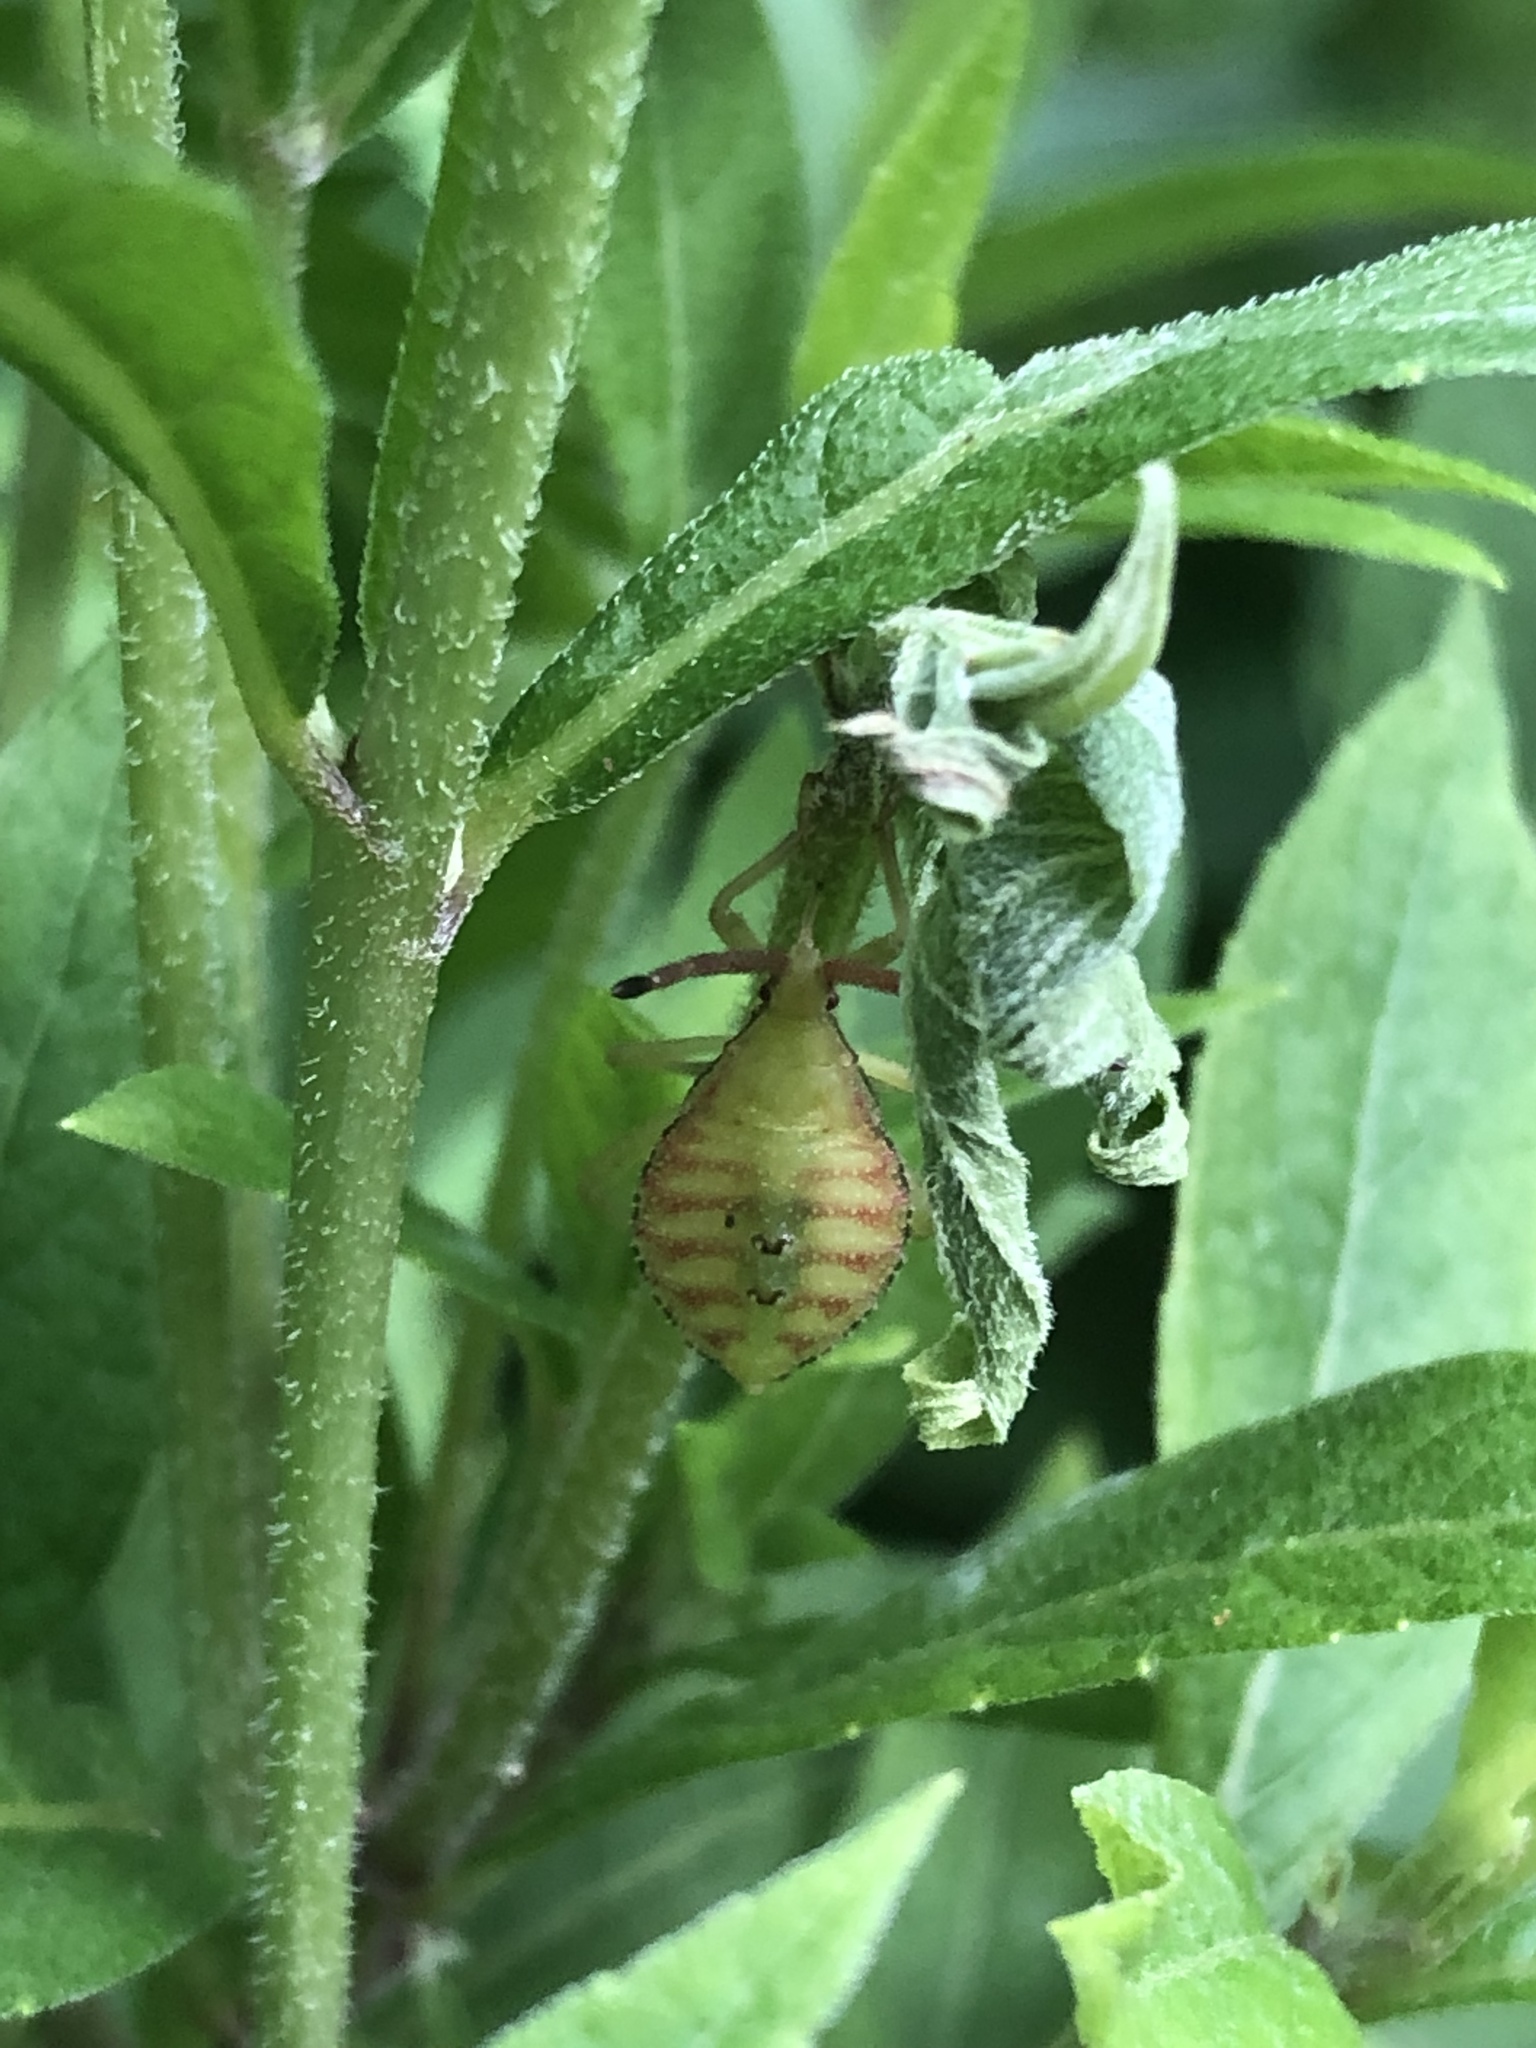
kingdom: Animalia
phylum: Arthropoda
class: Insecta
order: Hemiptera
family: Coreidae
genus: Piezogaster
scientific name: Piezogaster calcarator
